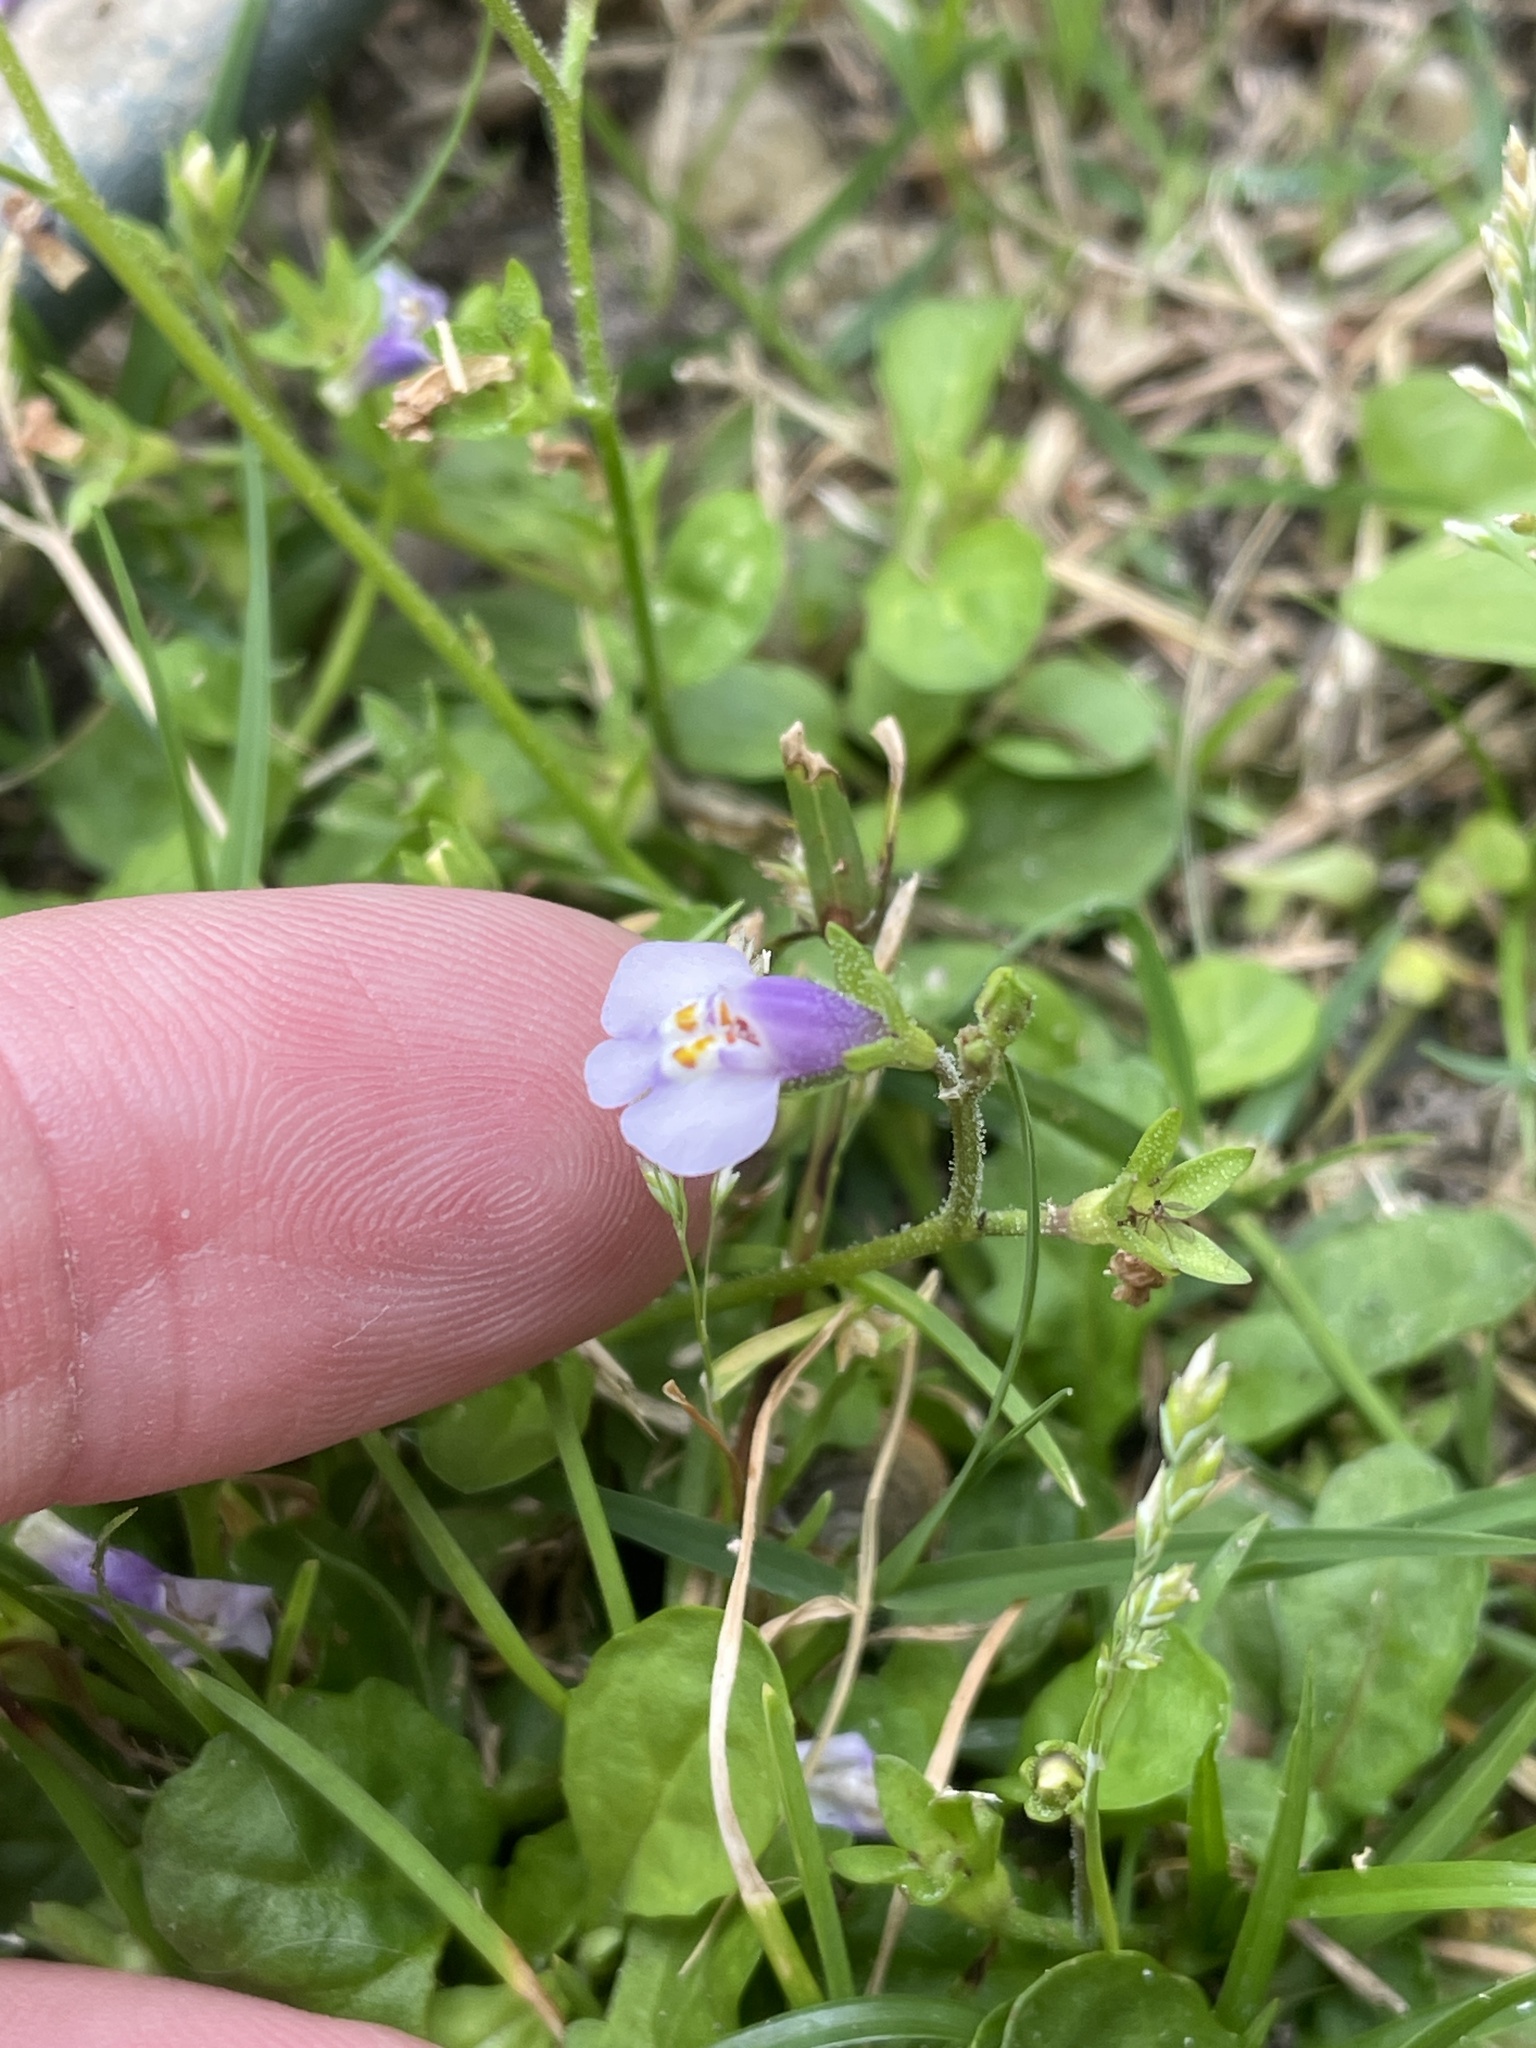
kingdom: Plantae
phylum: Tracheophyta
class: Magnoliopsida
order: Lamiales
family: Mazaceae
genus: Mazus
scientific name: Mazus pumilus
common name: Japanese mazus
